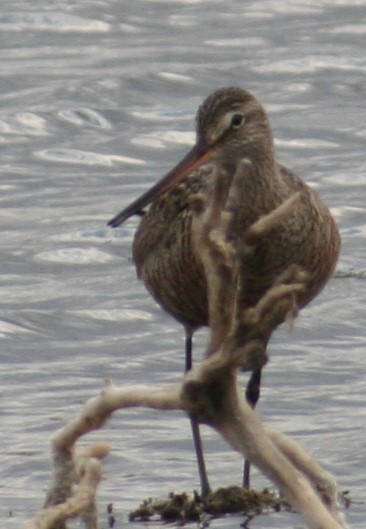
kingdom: Animalia
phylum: Chordata
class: Aves
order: Charadriiformes
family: Scolopacidae
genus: Limosa
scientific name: Limosa haemastica
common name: Hudsonian godwit
